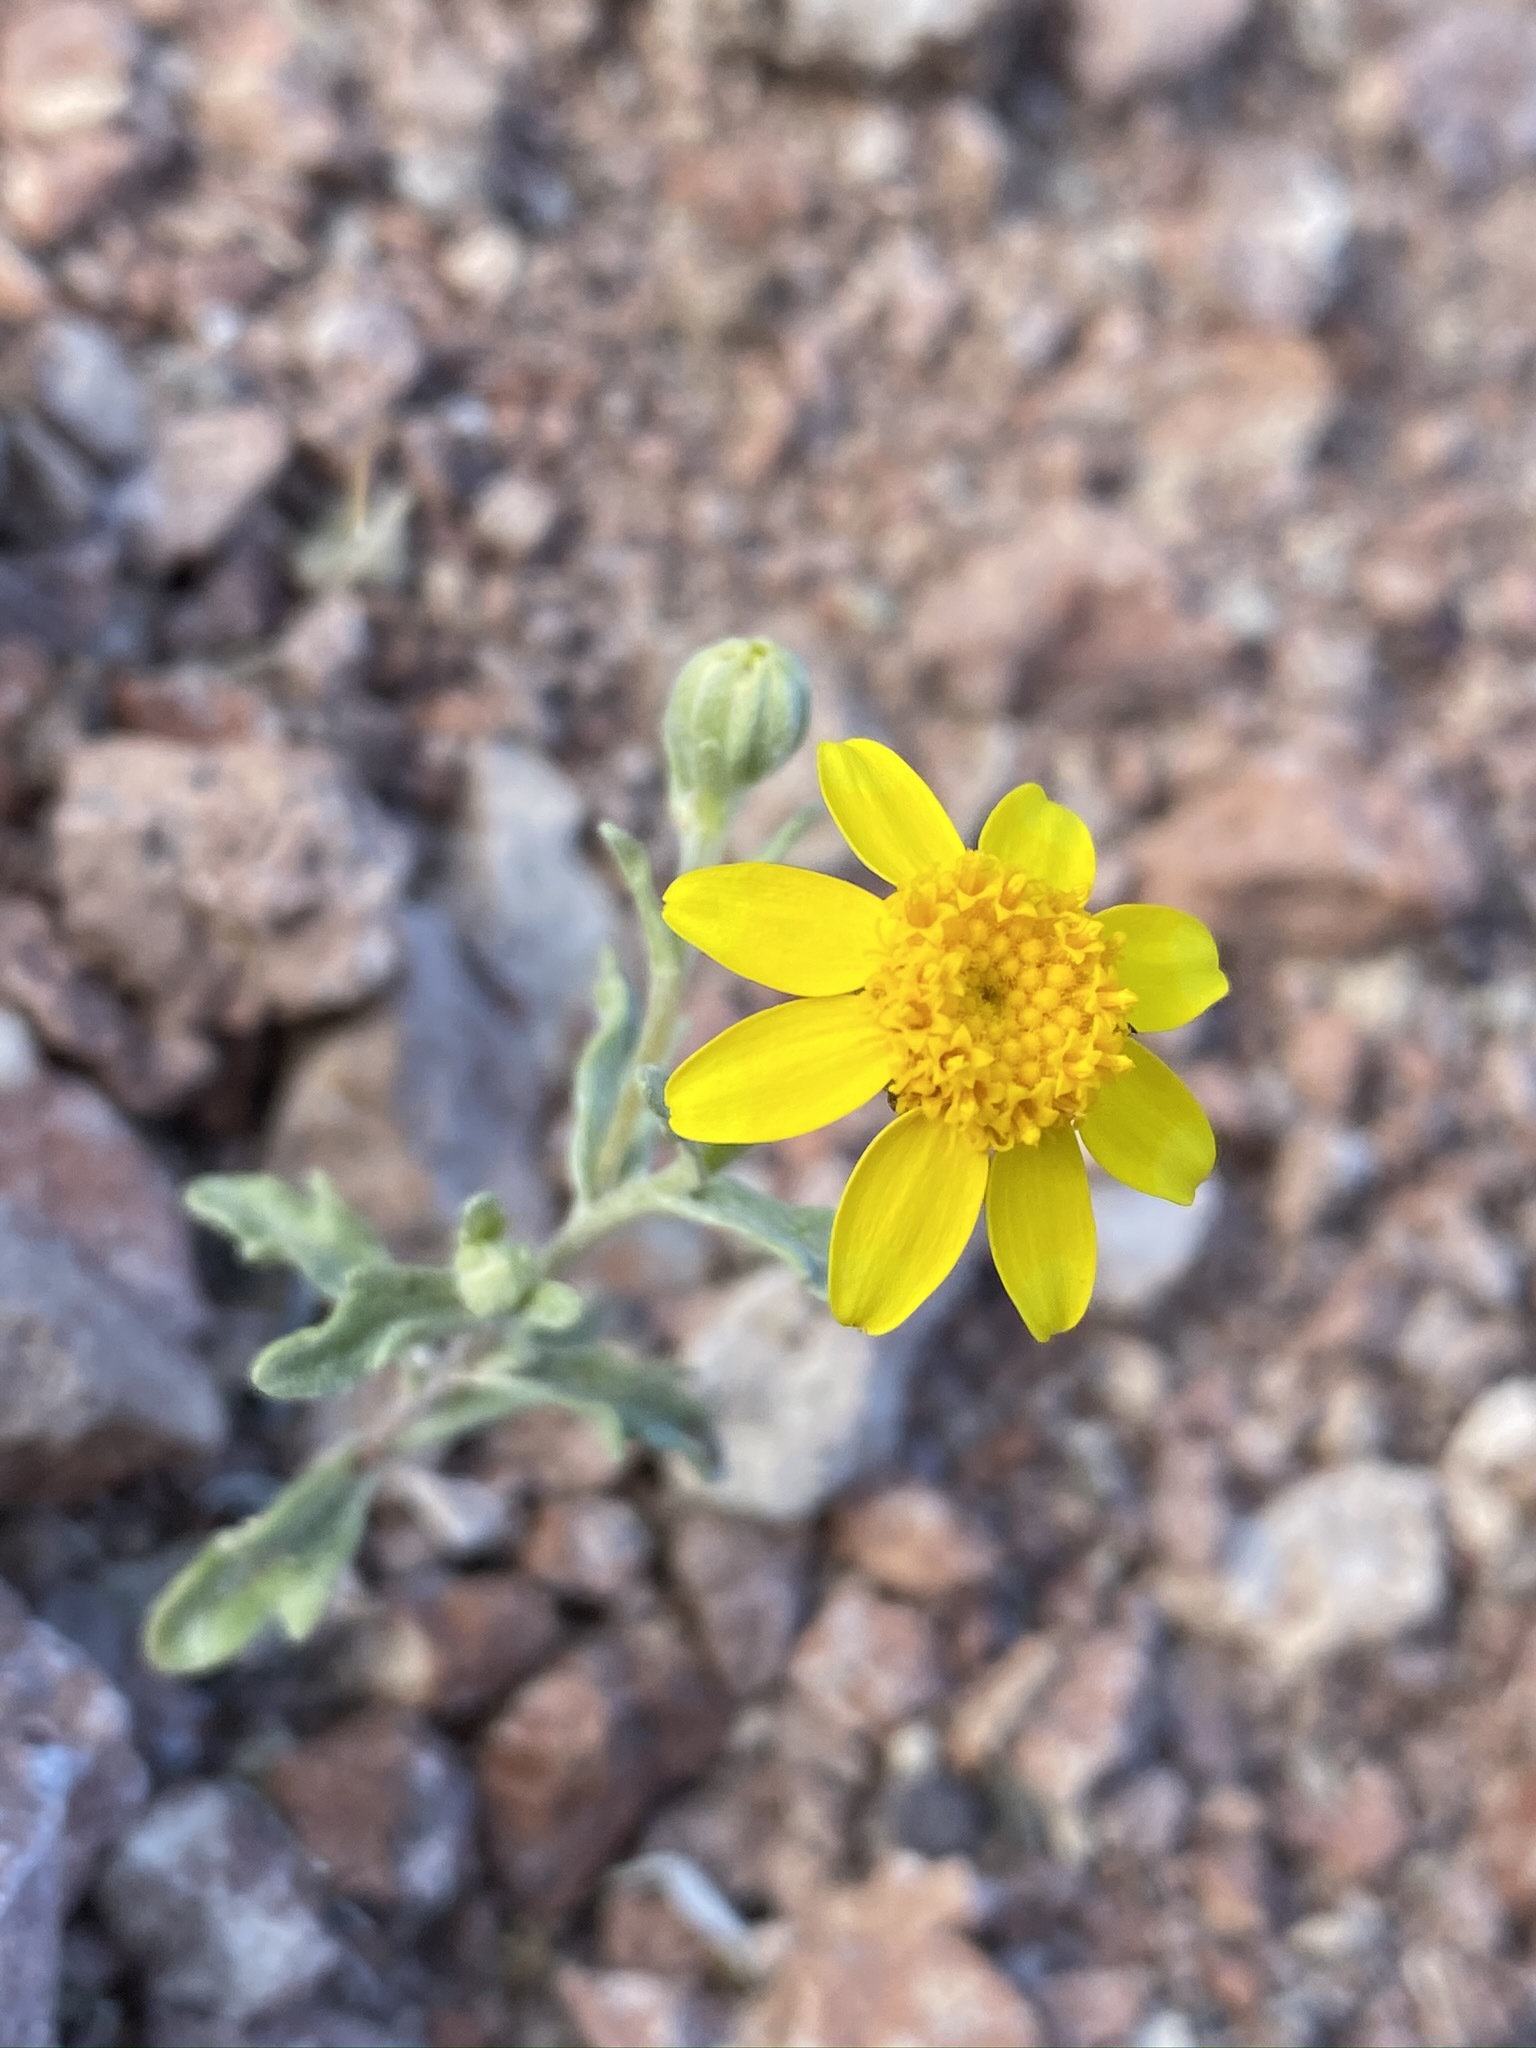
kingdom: Plantae
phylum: Tracheophyta
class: Magnoliopsida
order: Asterales
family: Asteraceae
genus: Eriophyllum
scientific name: Eriophyllum ambiguum
